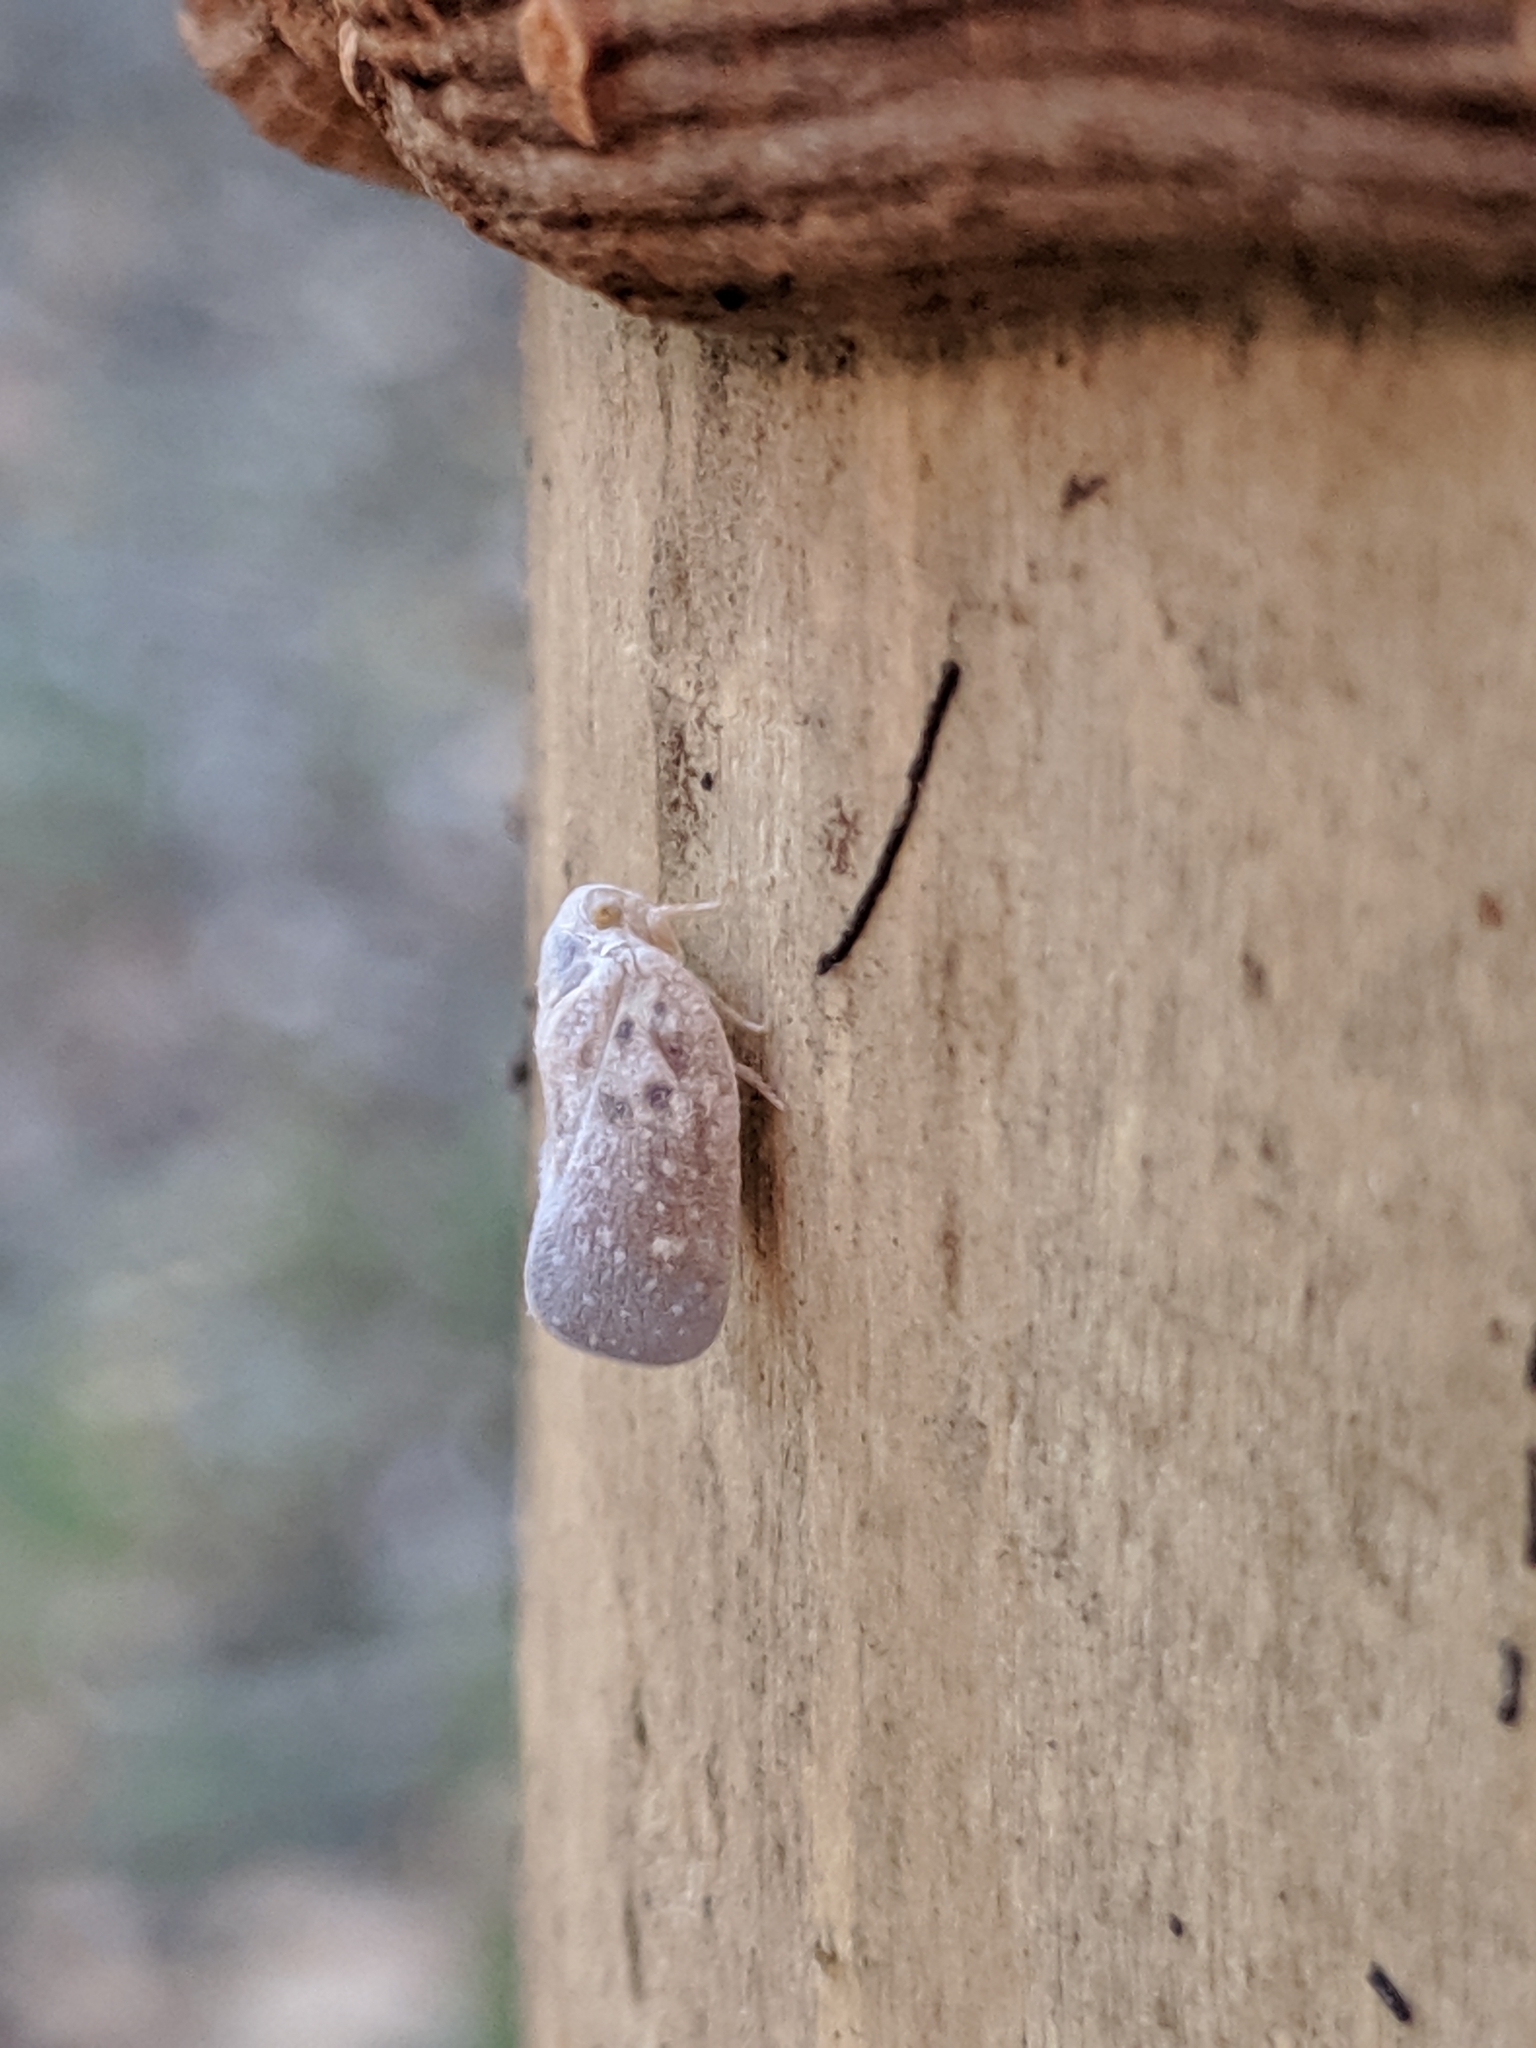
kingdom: Animalia
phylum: Arthropoda
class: Insecta
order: Hemiptera
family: Flatidae
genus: Metcalfa
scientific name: Metcalfa pruinosa
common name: Citrus flatid planthopper
